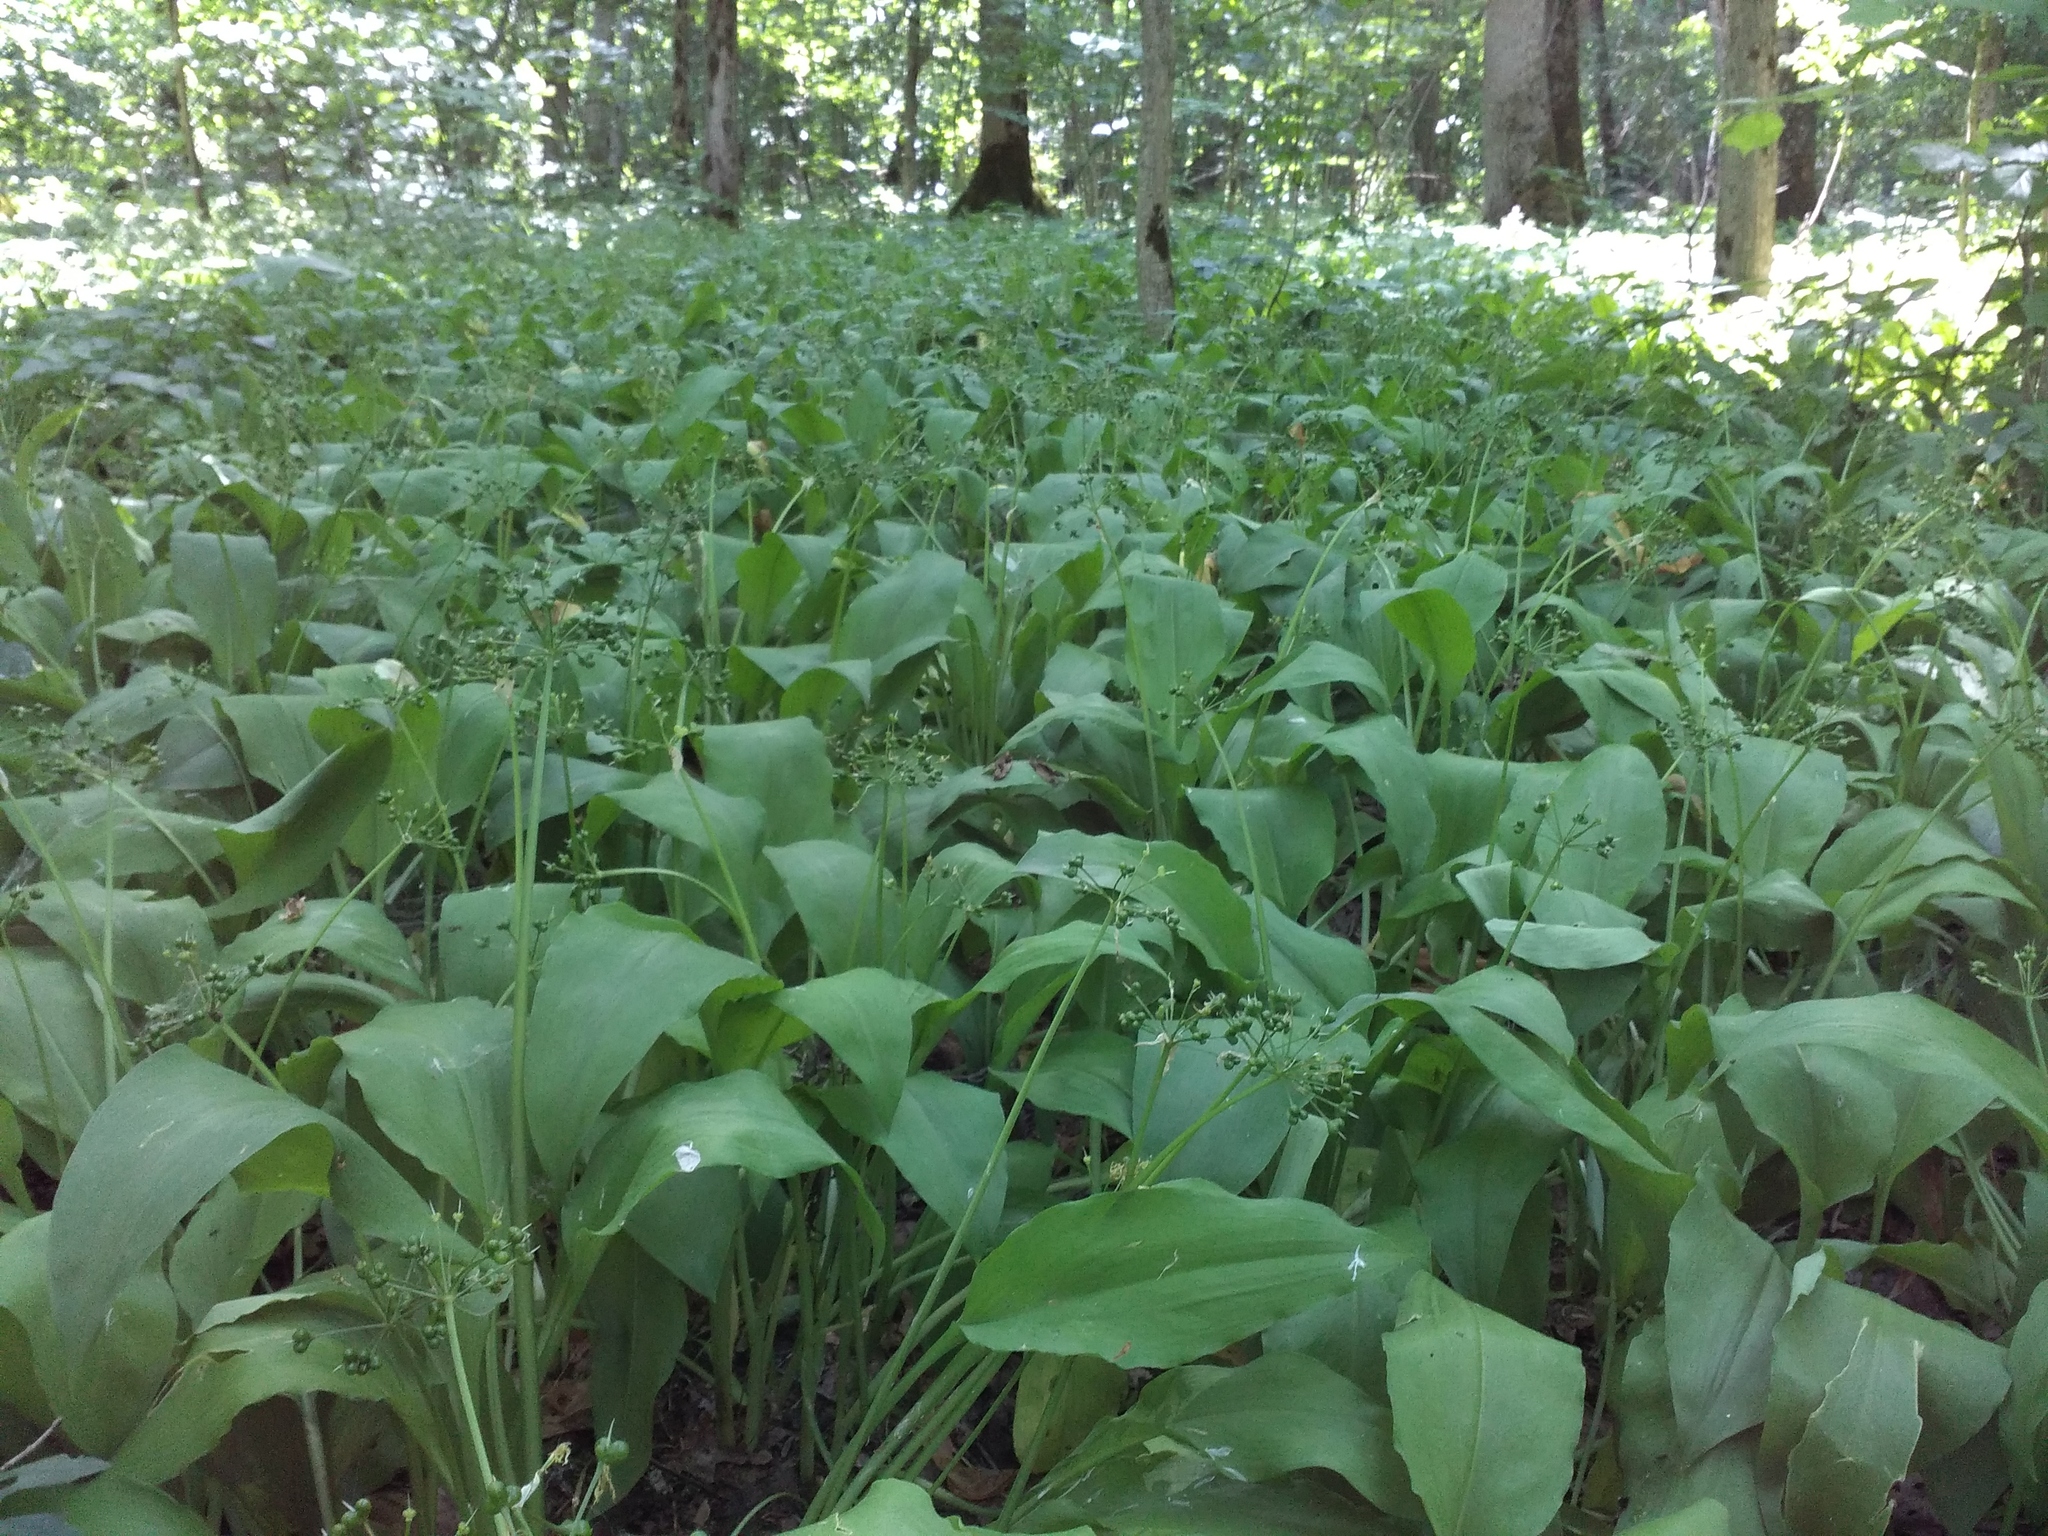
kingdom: Plantae
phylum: Tracheophyta
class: Liliopsida
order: Asparagales
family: Amaryllidaceae
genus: Allium
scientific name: Allium ursinum
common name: Ramsons
